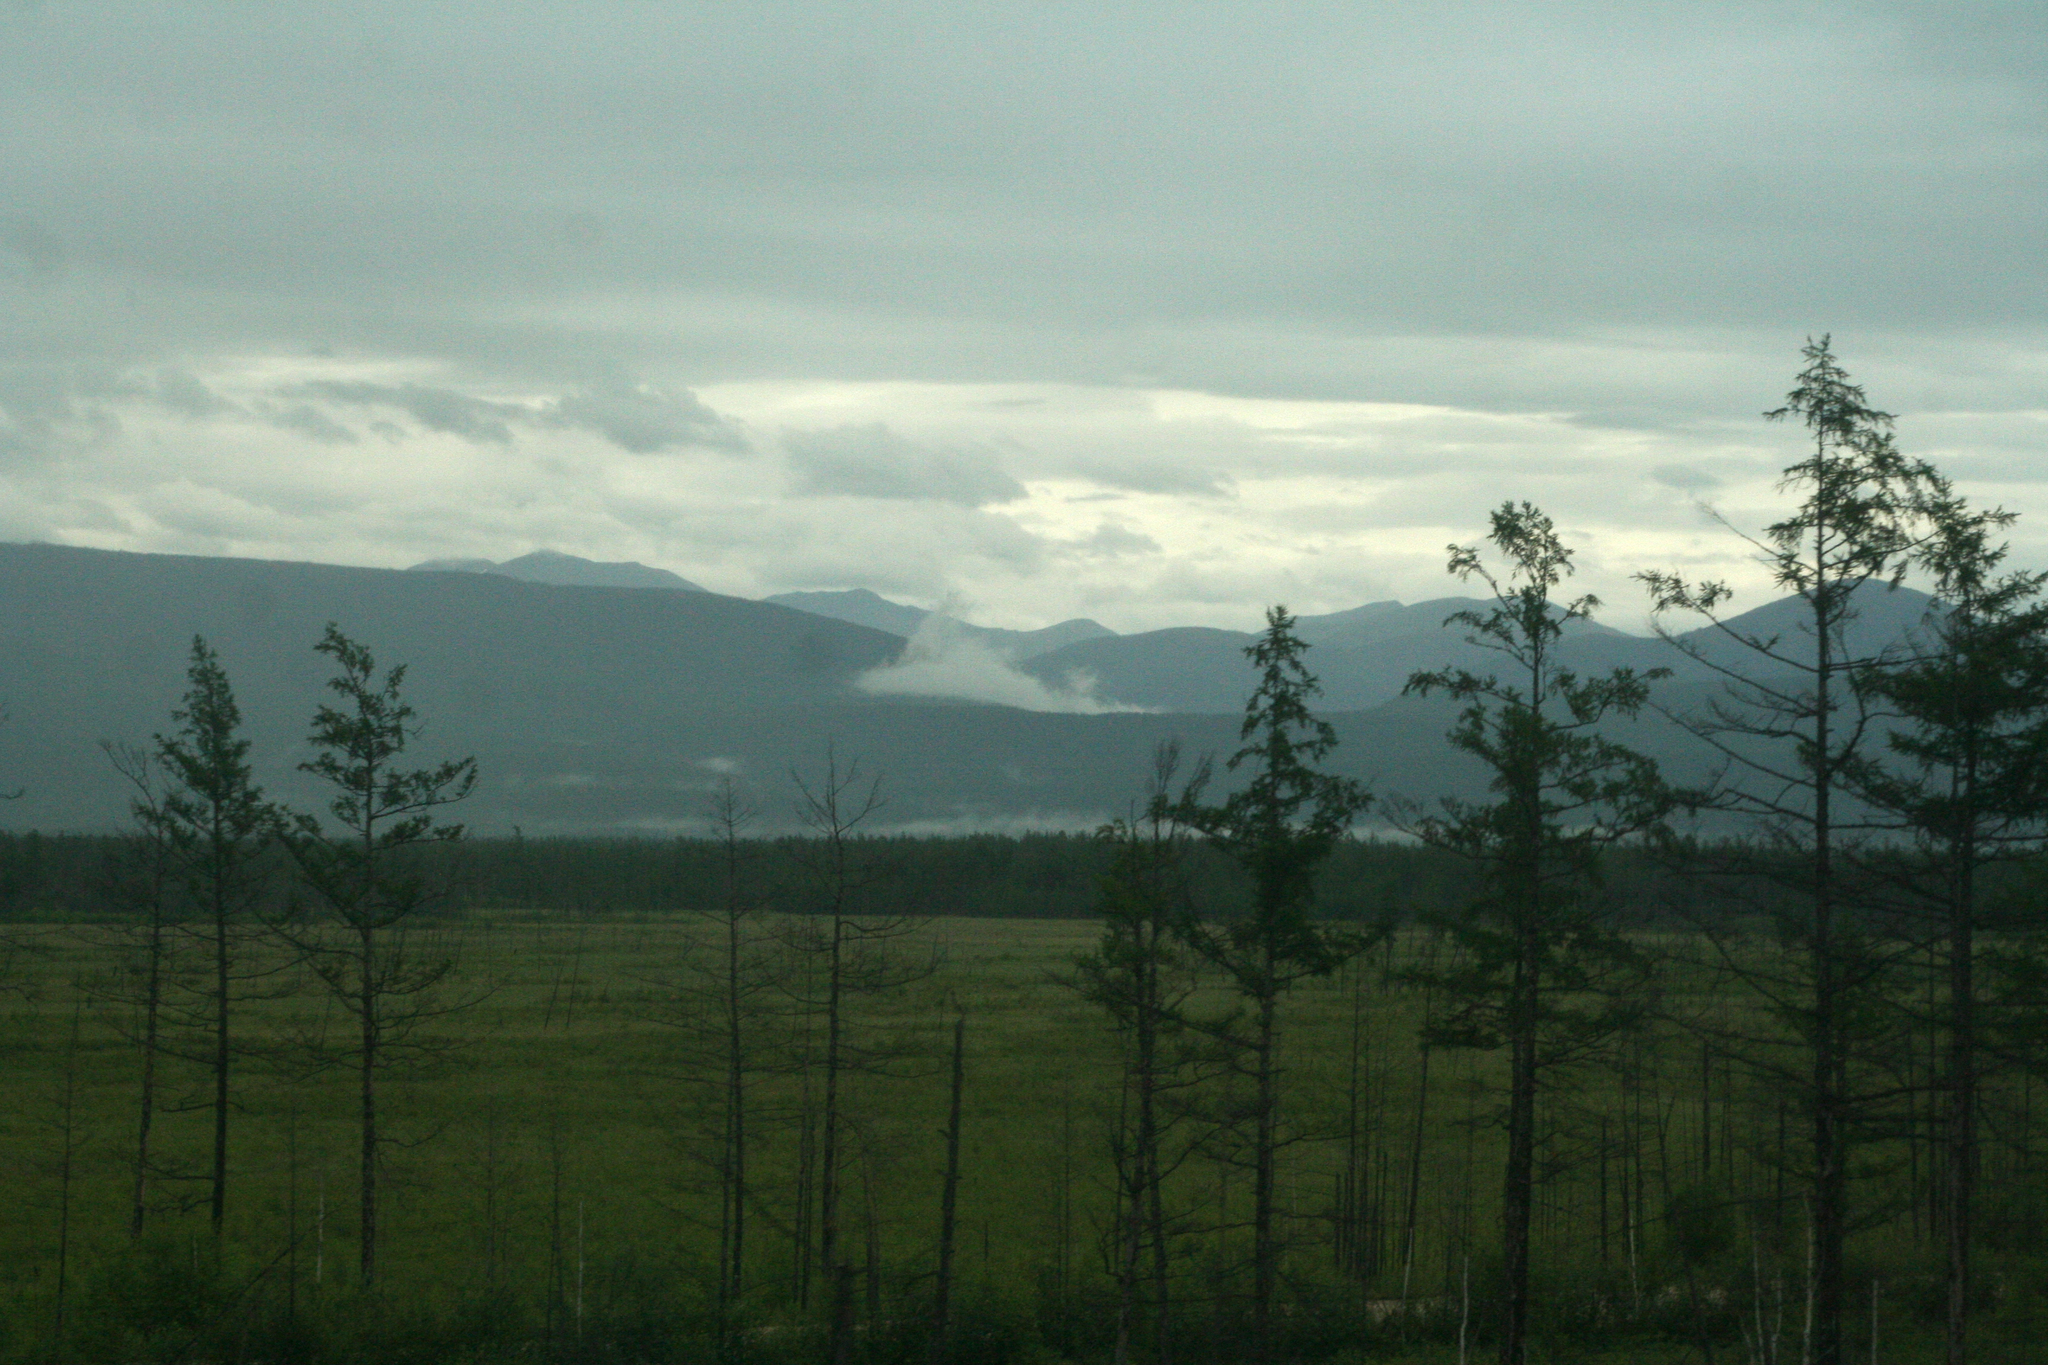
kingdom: Plantae
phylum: Tracheophyta
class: Pinopsida
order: Pinales
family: Pinaceae
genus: Larix
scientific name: Larix gmelinii
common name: Dahurian larch
